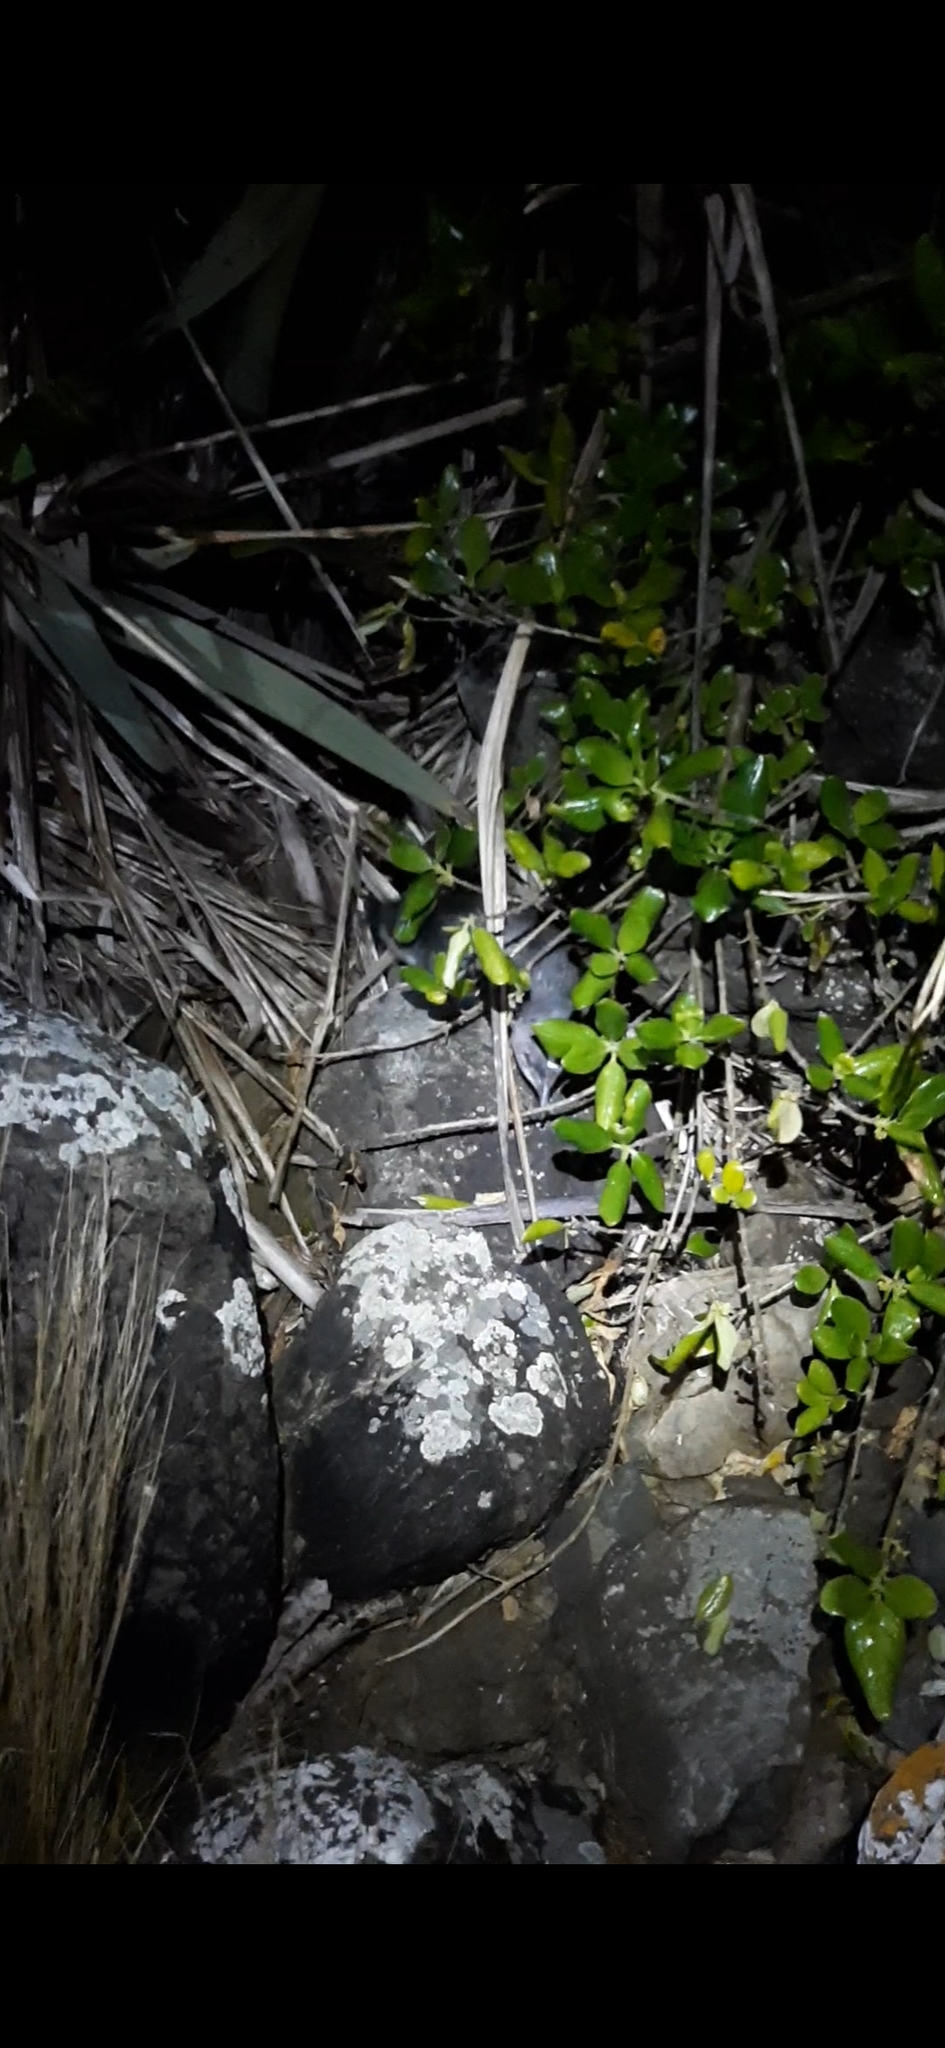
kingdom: Animalia
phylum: Chordata
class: Aves
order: Sphenisciformes
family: Spheniscidae
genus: Eudyptula
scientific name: Eudyptula minor
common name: Little penguin
